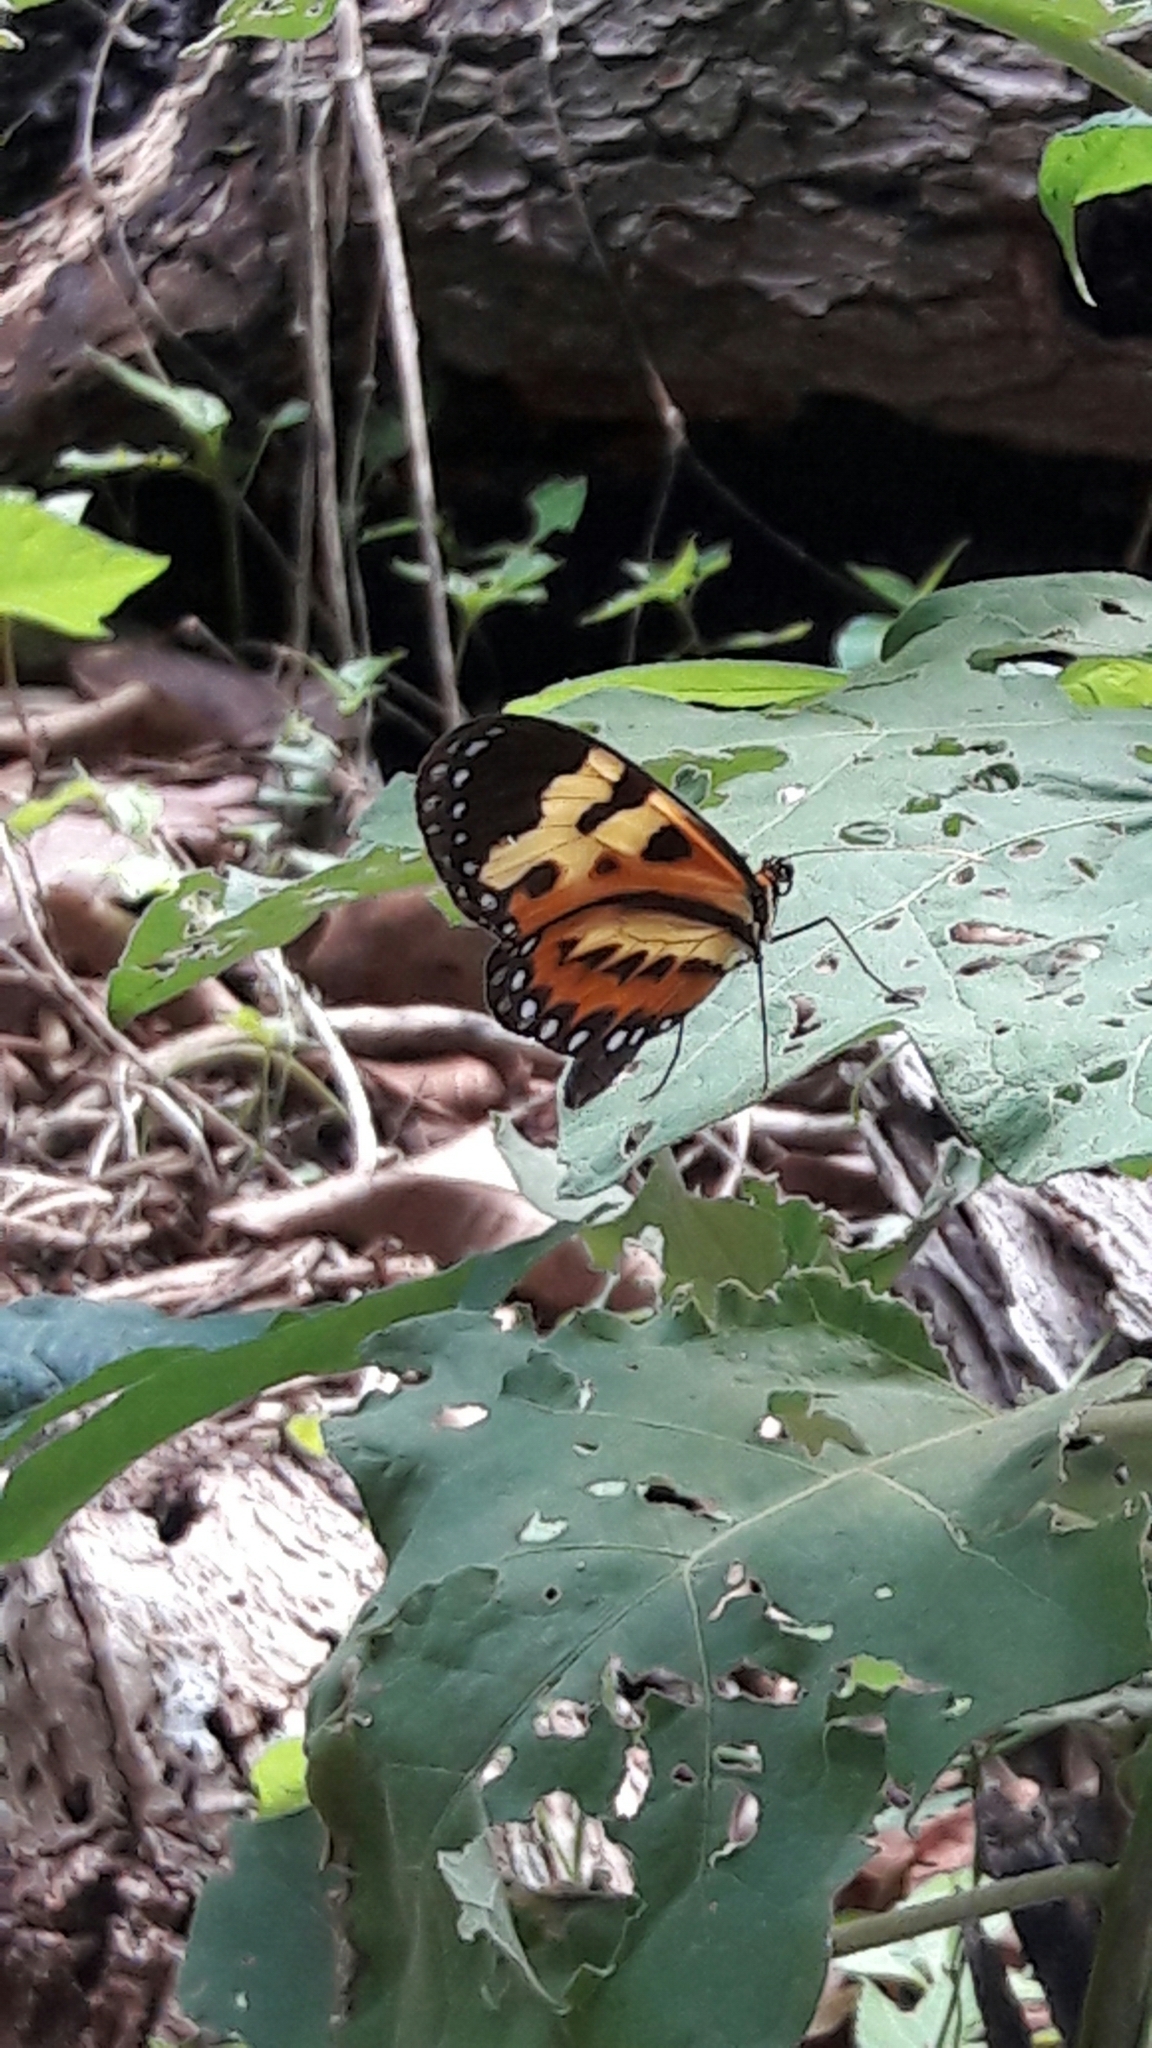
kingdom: Animalia
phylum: Arthropoda
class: Insecta
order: Lepidoptera
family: Nymphalidae
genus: Mechanitis
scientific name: Mechanitis polymnia
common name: Disturbed tigerwing
